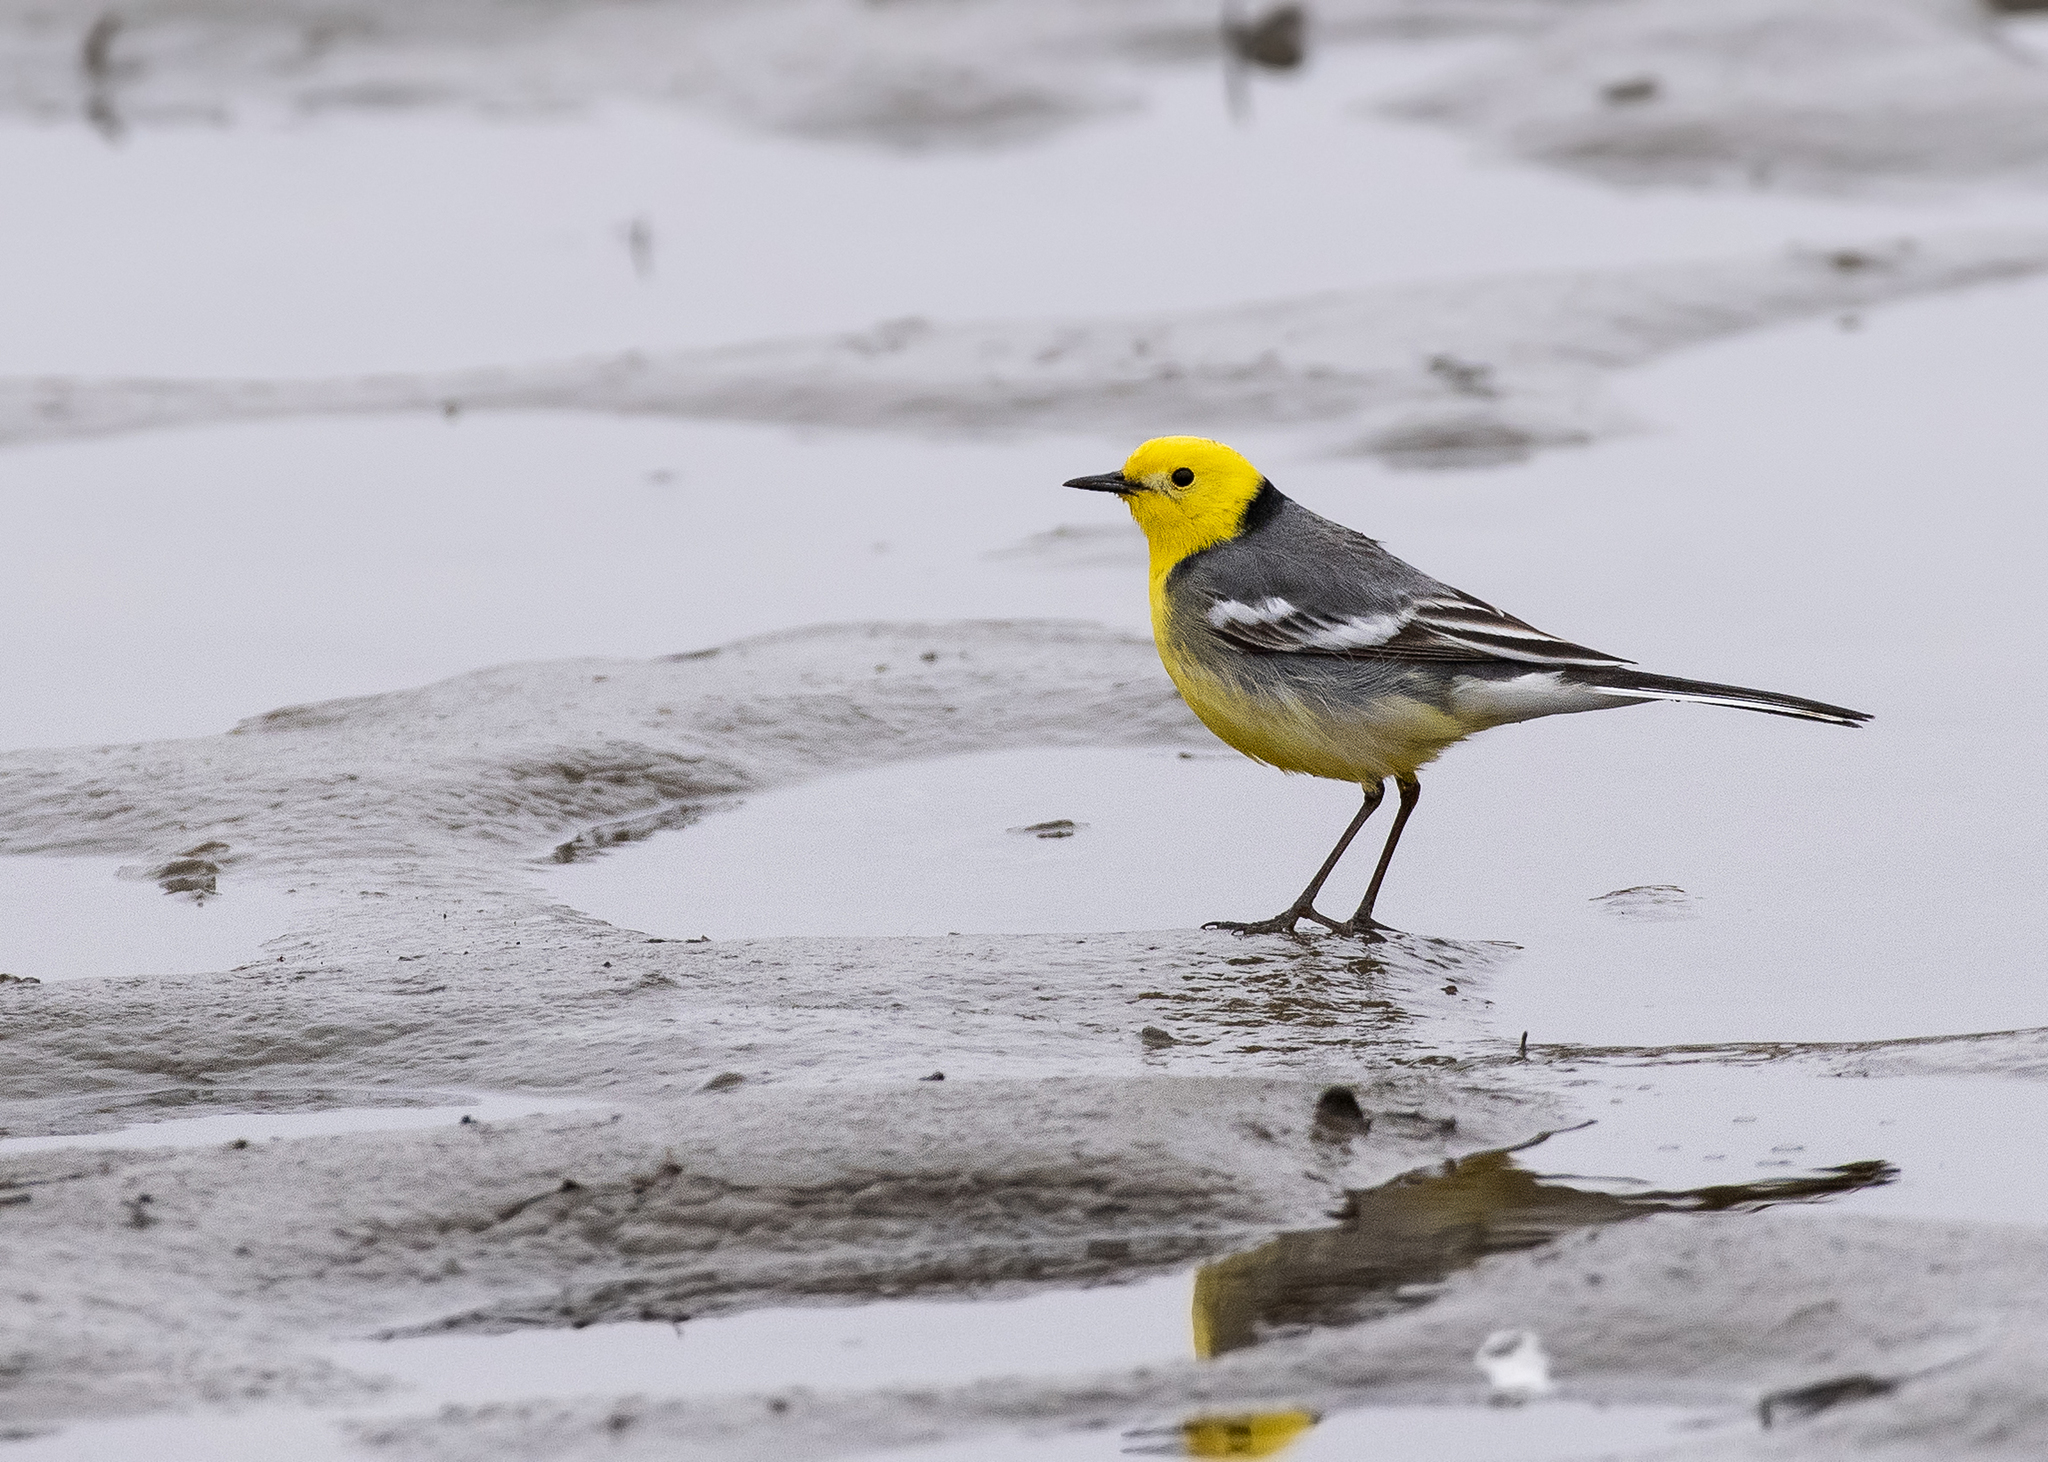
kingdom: Animalia
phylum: Chordata
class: Aves
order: Passeriformes
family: Motacillidae
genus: Motacilla
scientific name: Motacilla citreola
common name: Citrine wagtail
